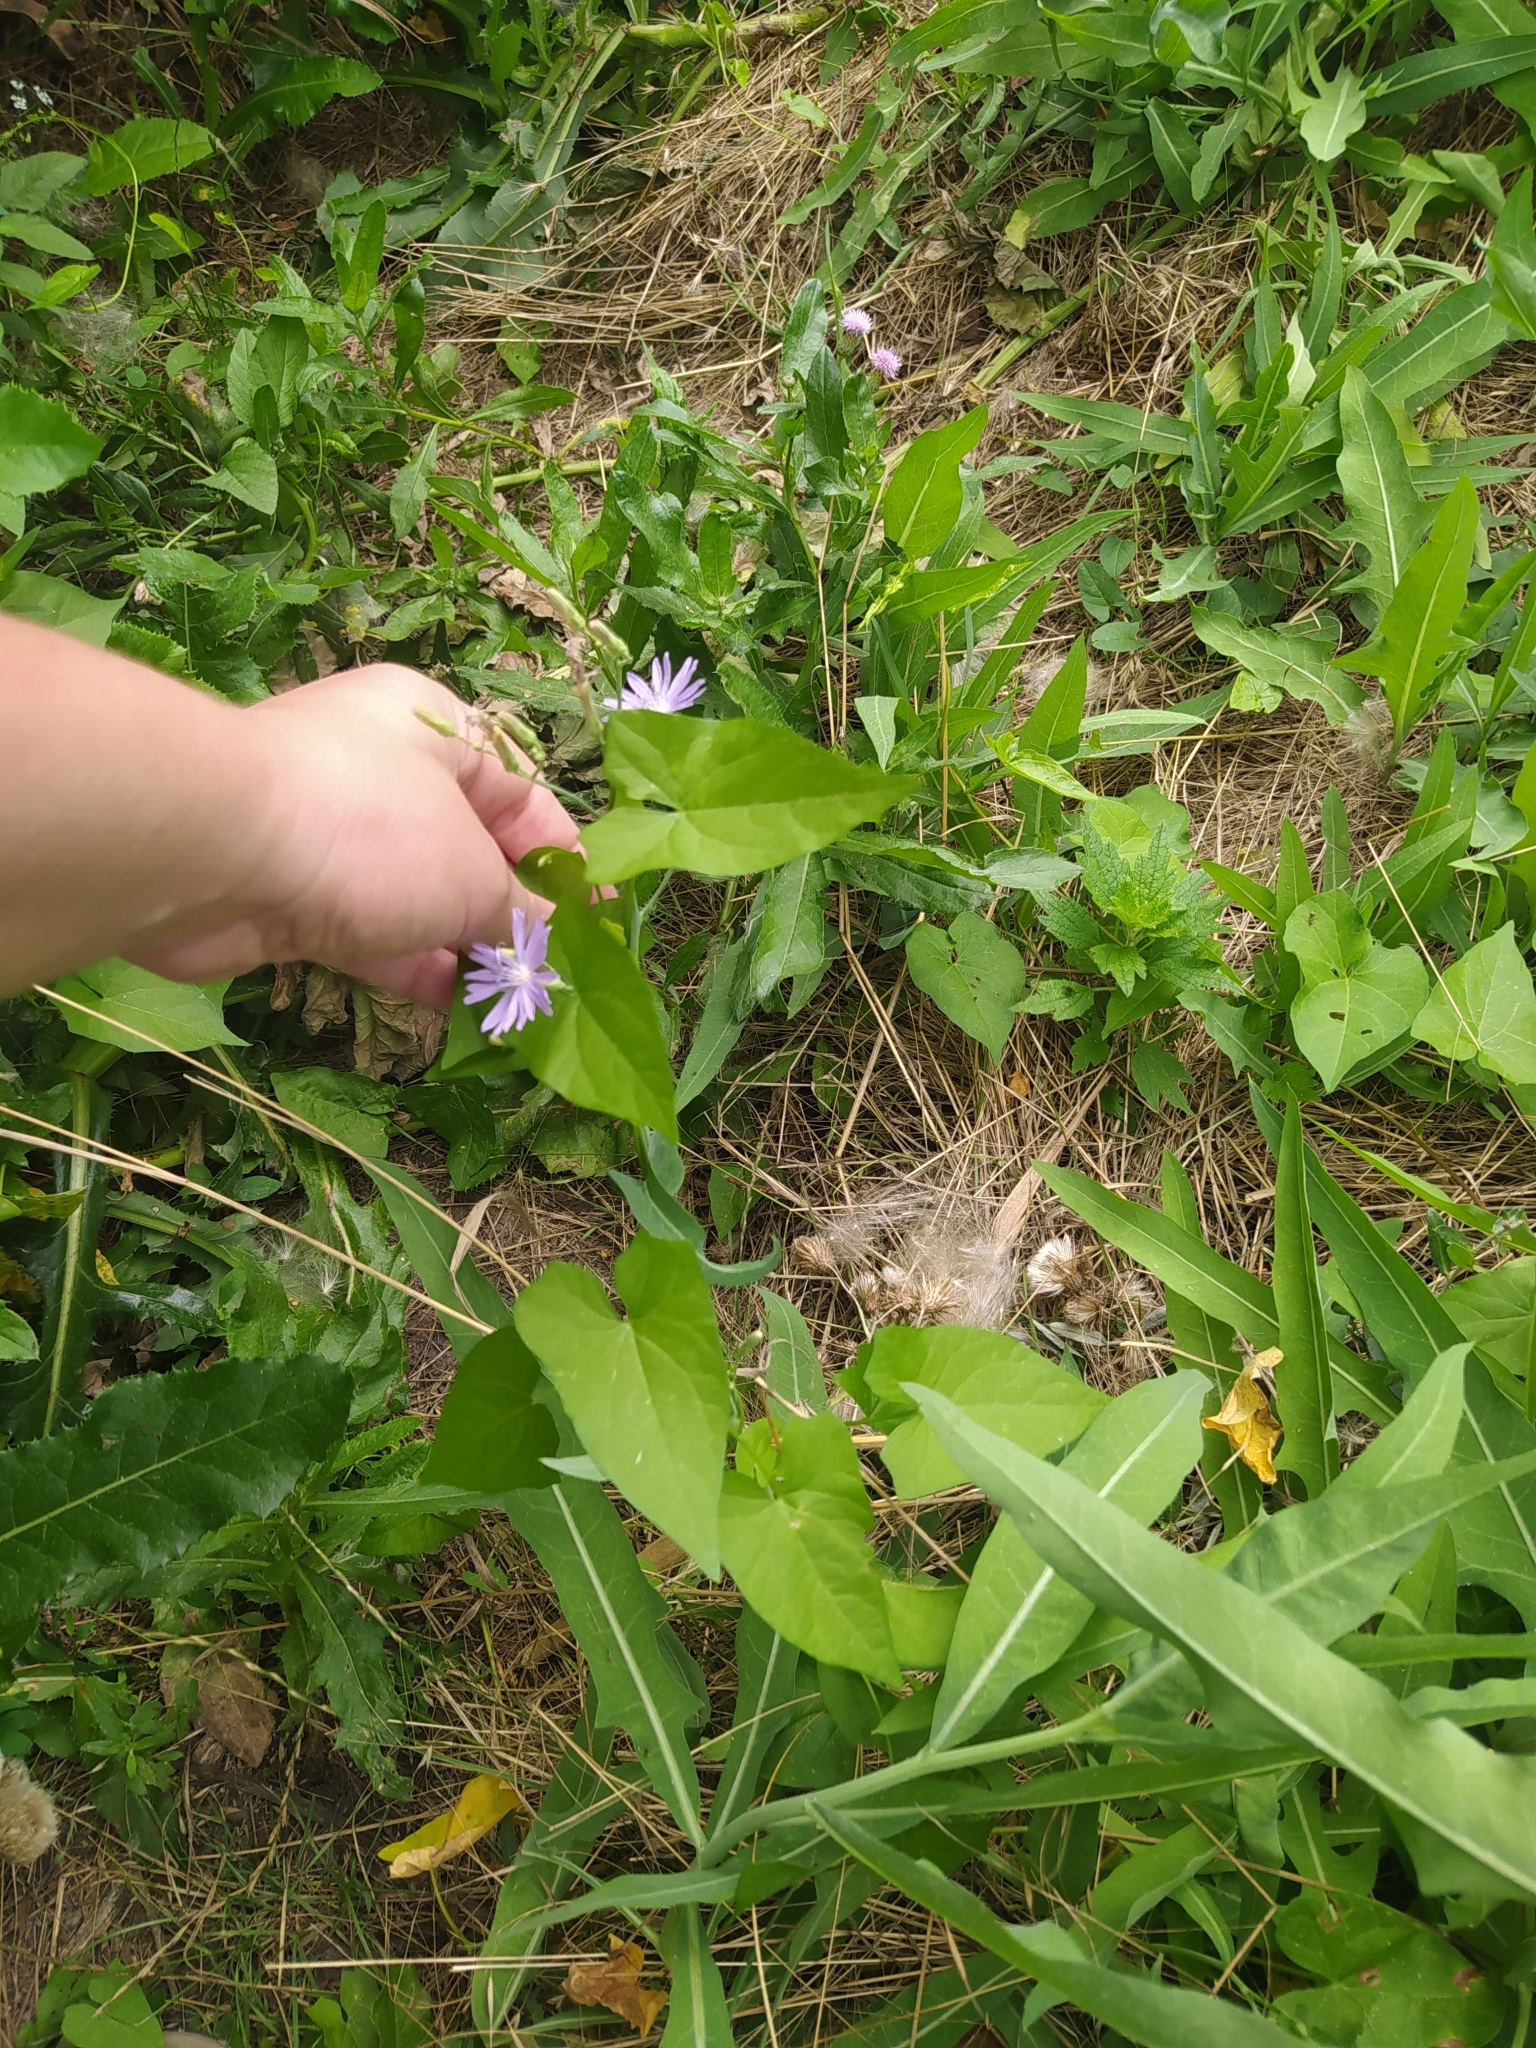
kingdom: Plantae
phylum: Tracheophyta
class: Magnoliopsida
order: Asterales
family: Asteraceae
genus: Lactuca
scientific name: Lactuca tatarica
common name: Blue lettuce
